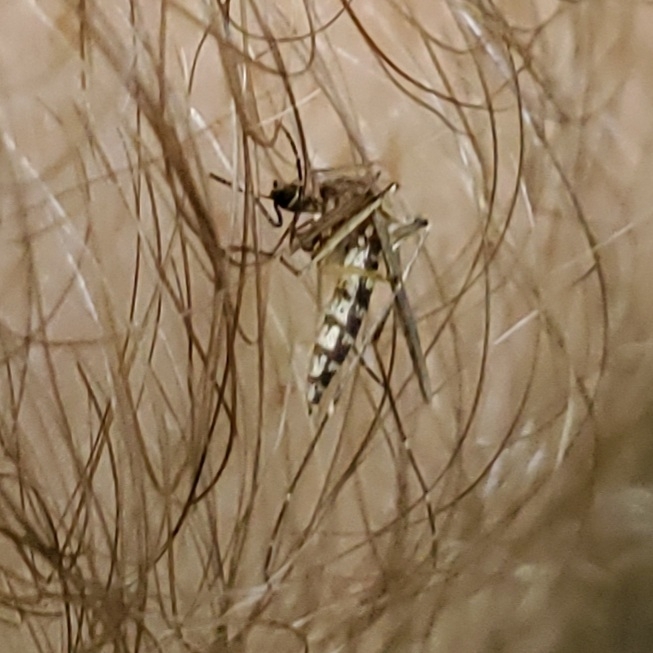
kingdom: Animalia
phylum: Arthropoda
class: Insecta
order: Diptera
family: Culicidae
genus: Aedes
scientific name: Aedes vexans
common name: Inland floodwater mosquito
